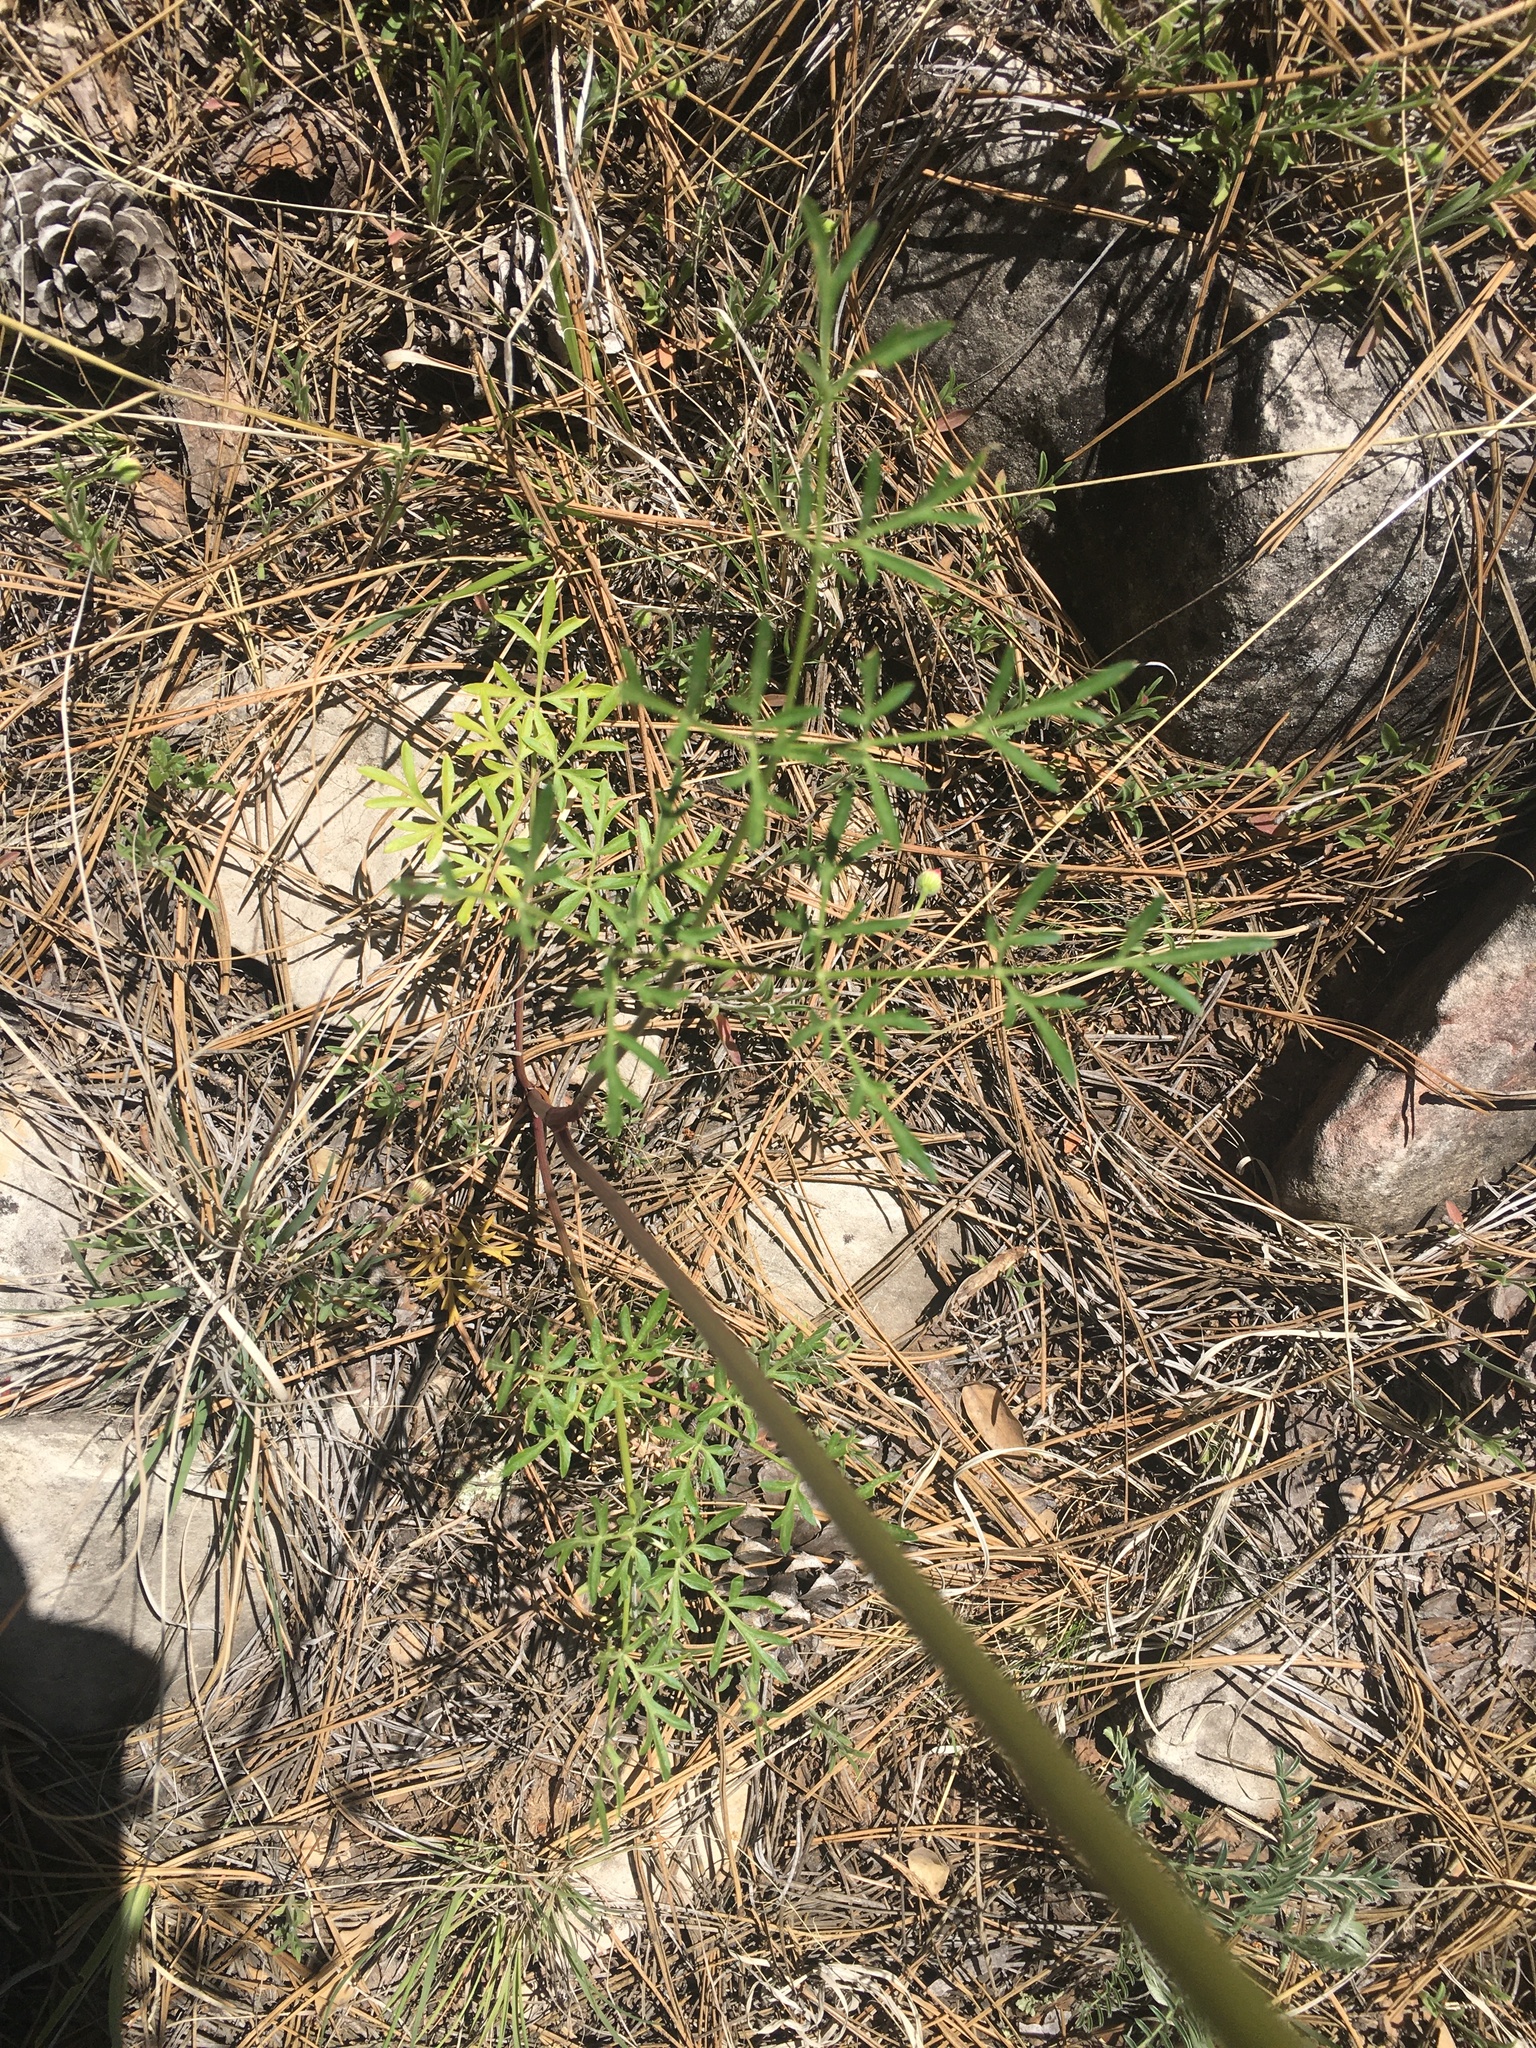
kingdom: Plantae
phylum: Tracheophyta
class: Magnoliopsida
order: Apiales
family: Apiaceae
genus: Pseudocymopterus
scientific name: Pseudocymopterus longiradiatus
